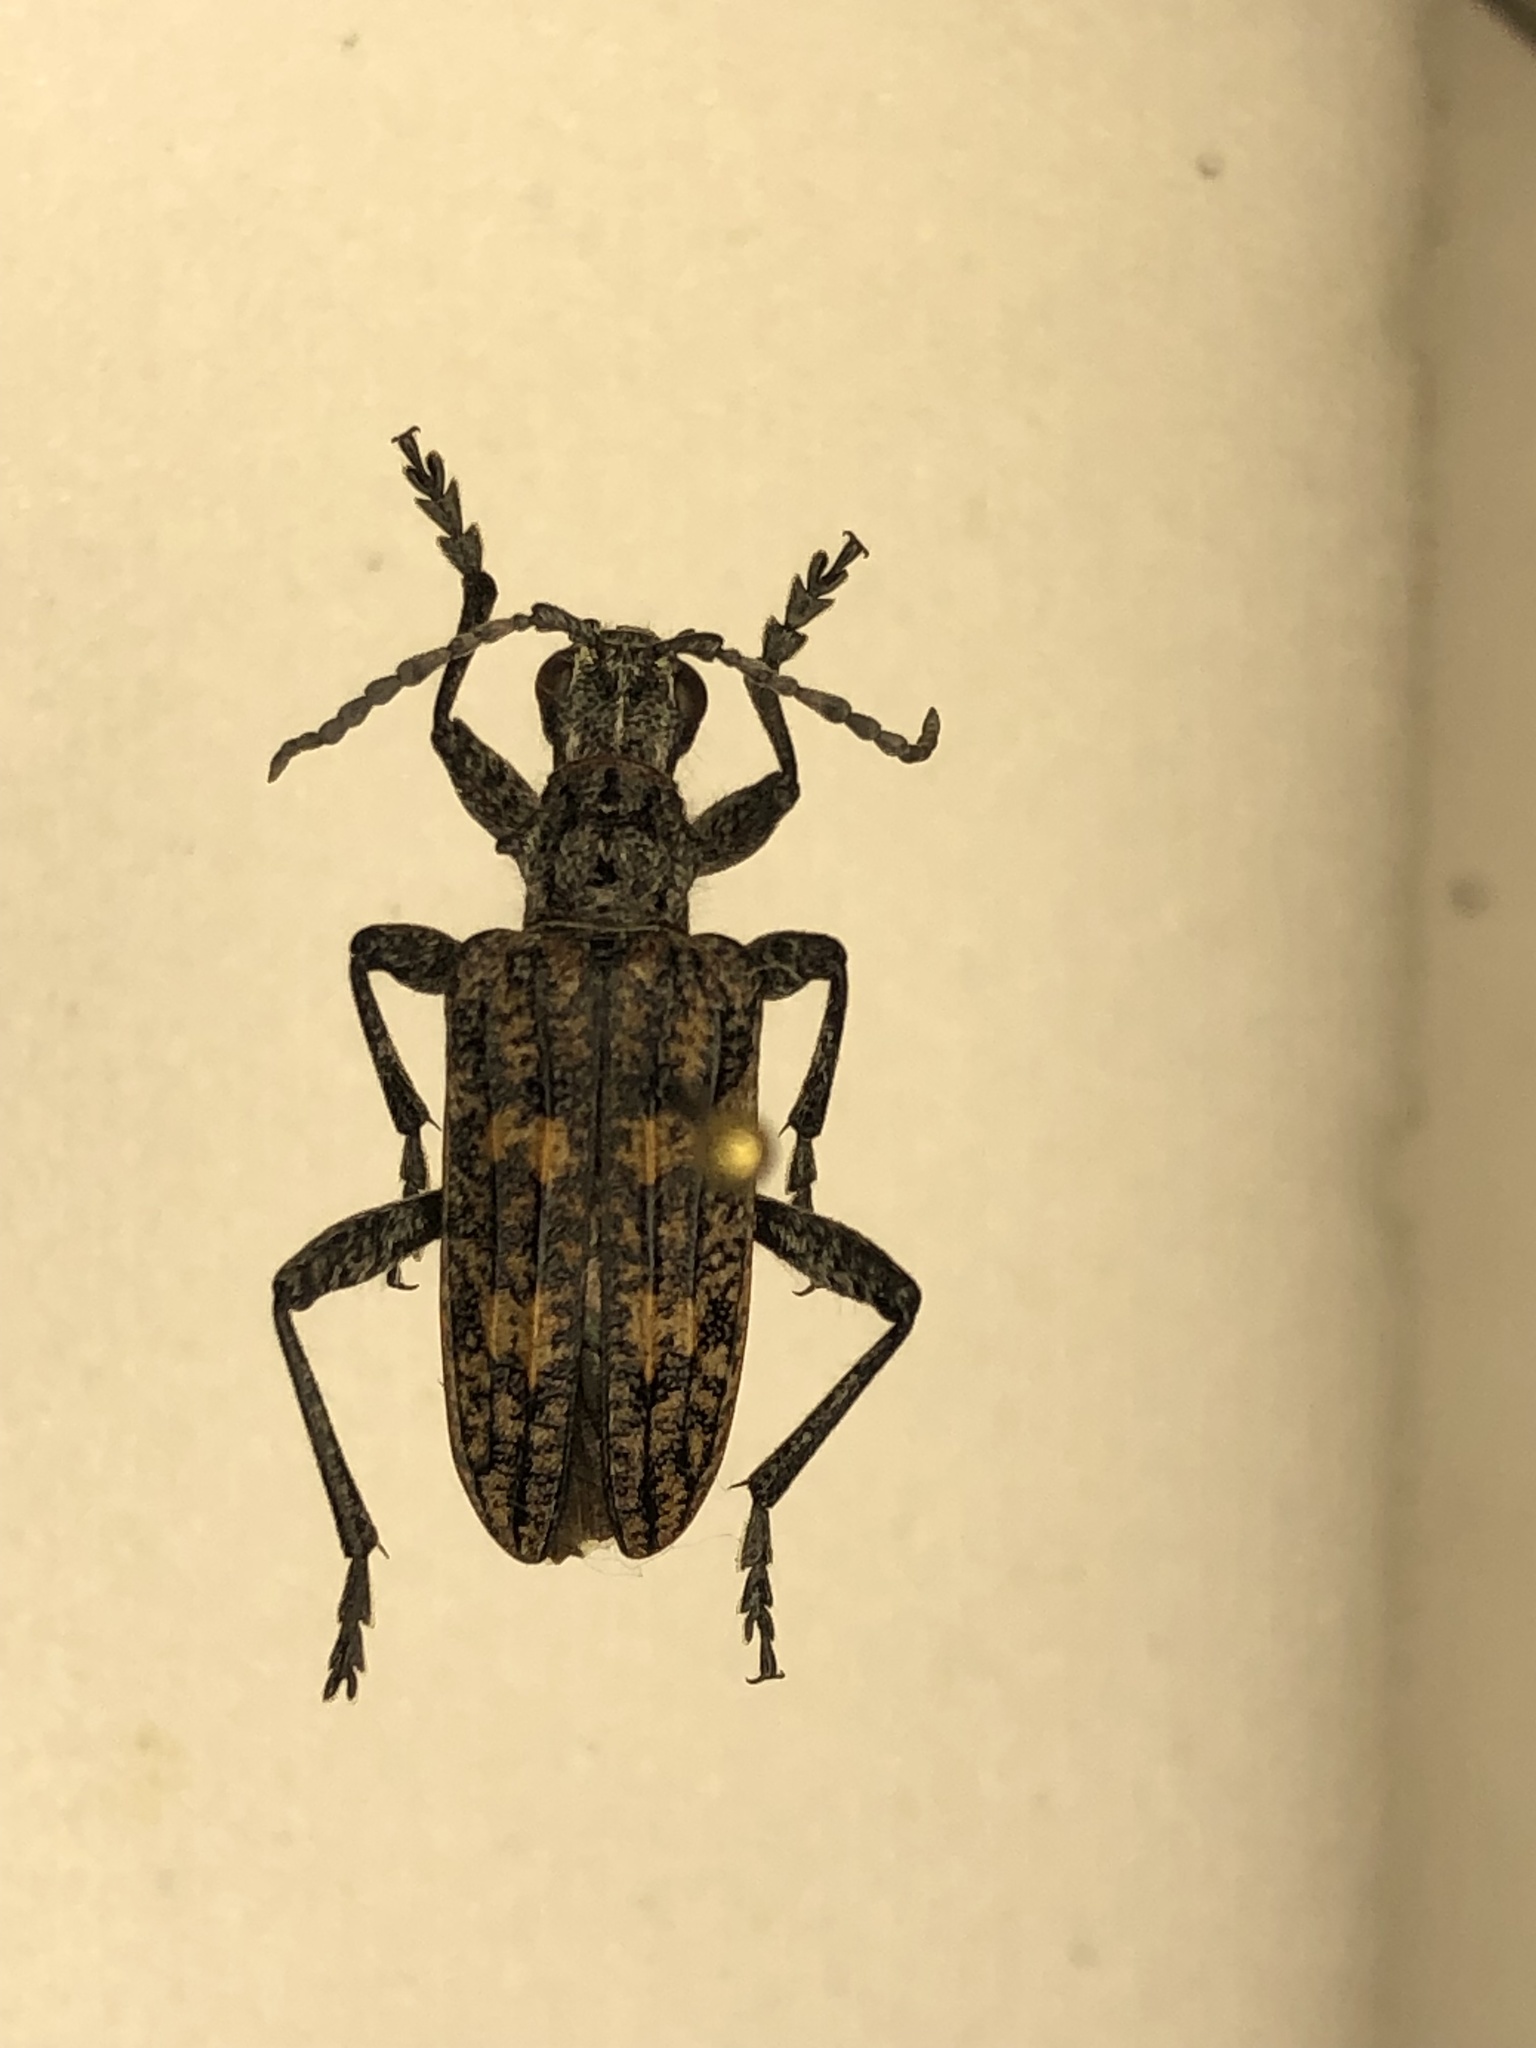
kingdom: Animalia
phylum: Arthropoda
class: Insecta
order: Coleoptera
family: Cerambycidae
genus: Rhagium
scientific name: Rhagium inquisitor
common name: Ribbed pine borer
